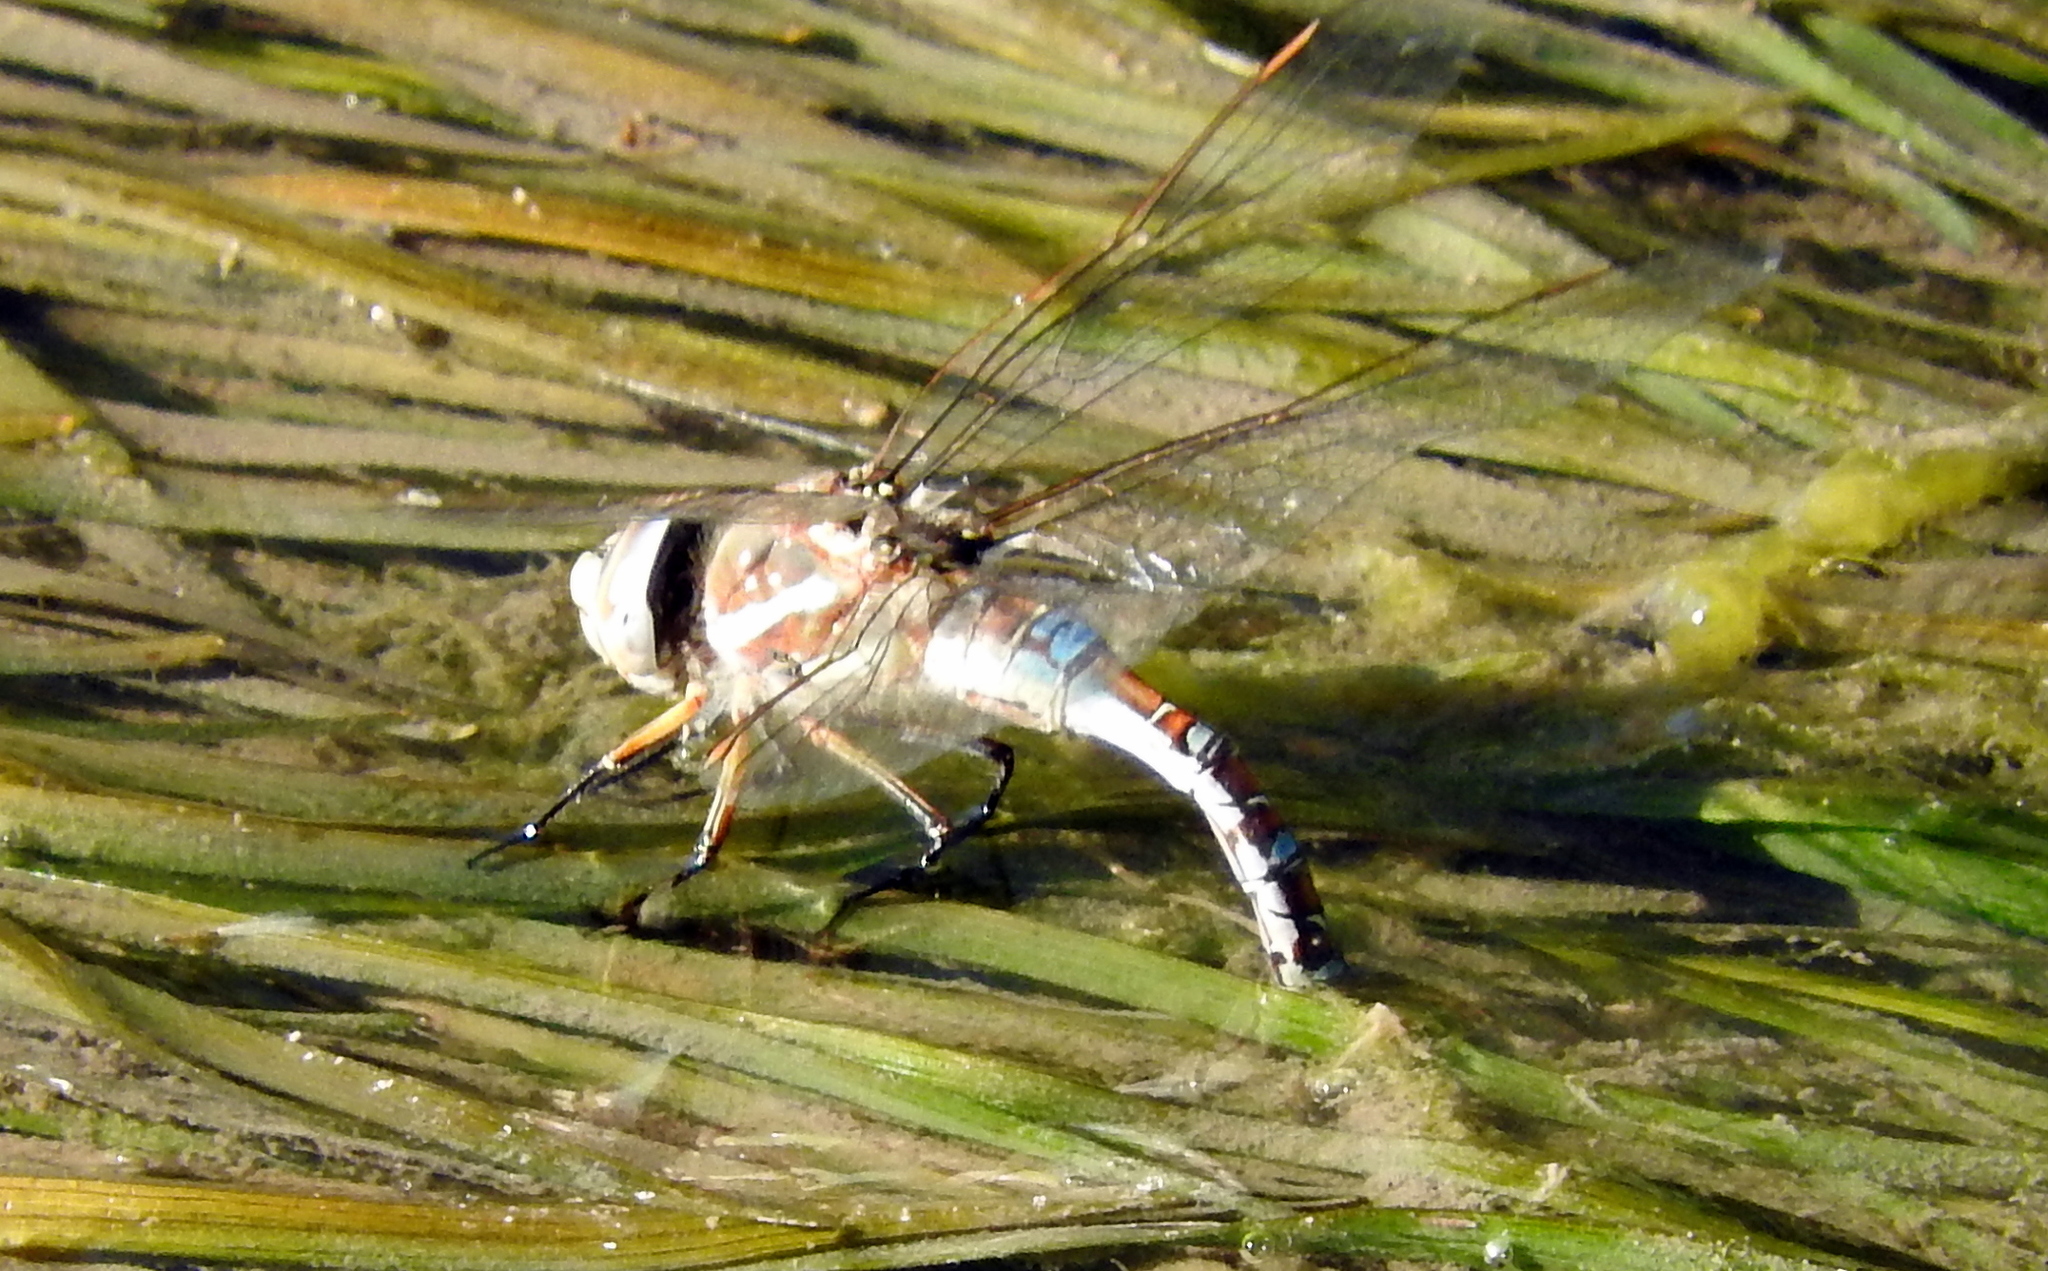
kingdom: Animalia
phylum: Arthropoda
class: Insecta
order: Odonata
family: Aeshnidae
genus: Rhionaeschna
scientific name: Rhionaeschna absoluta
